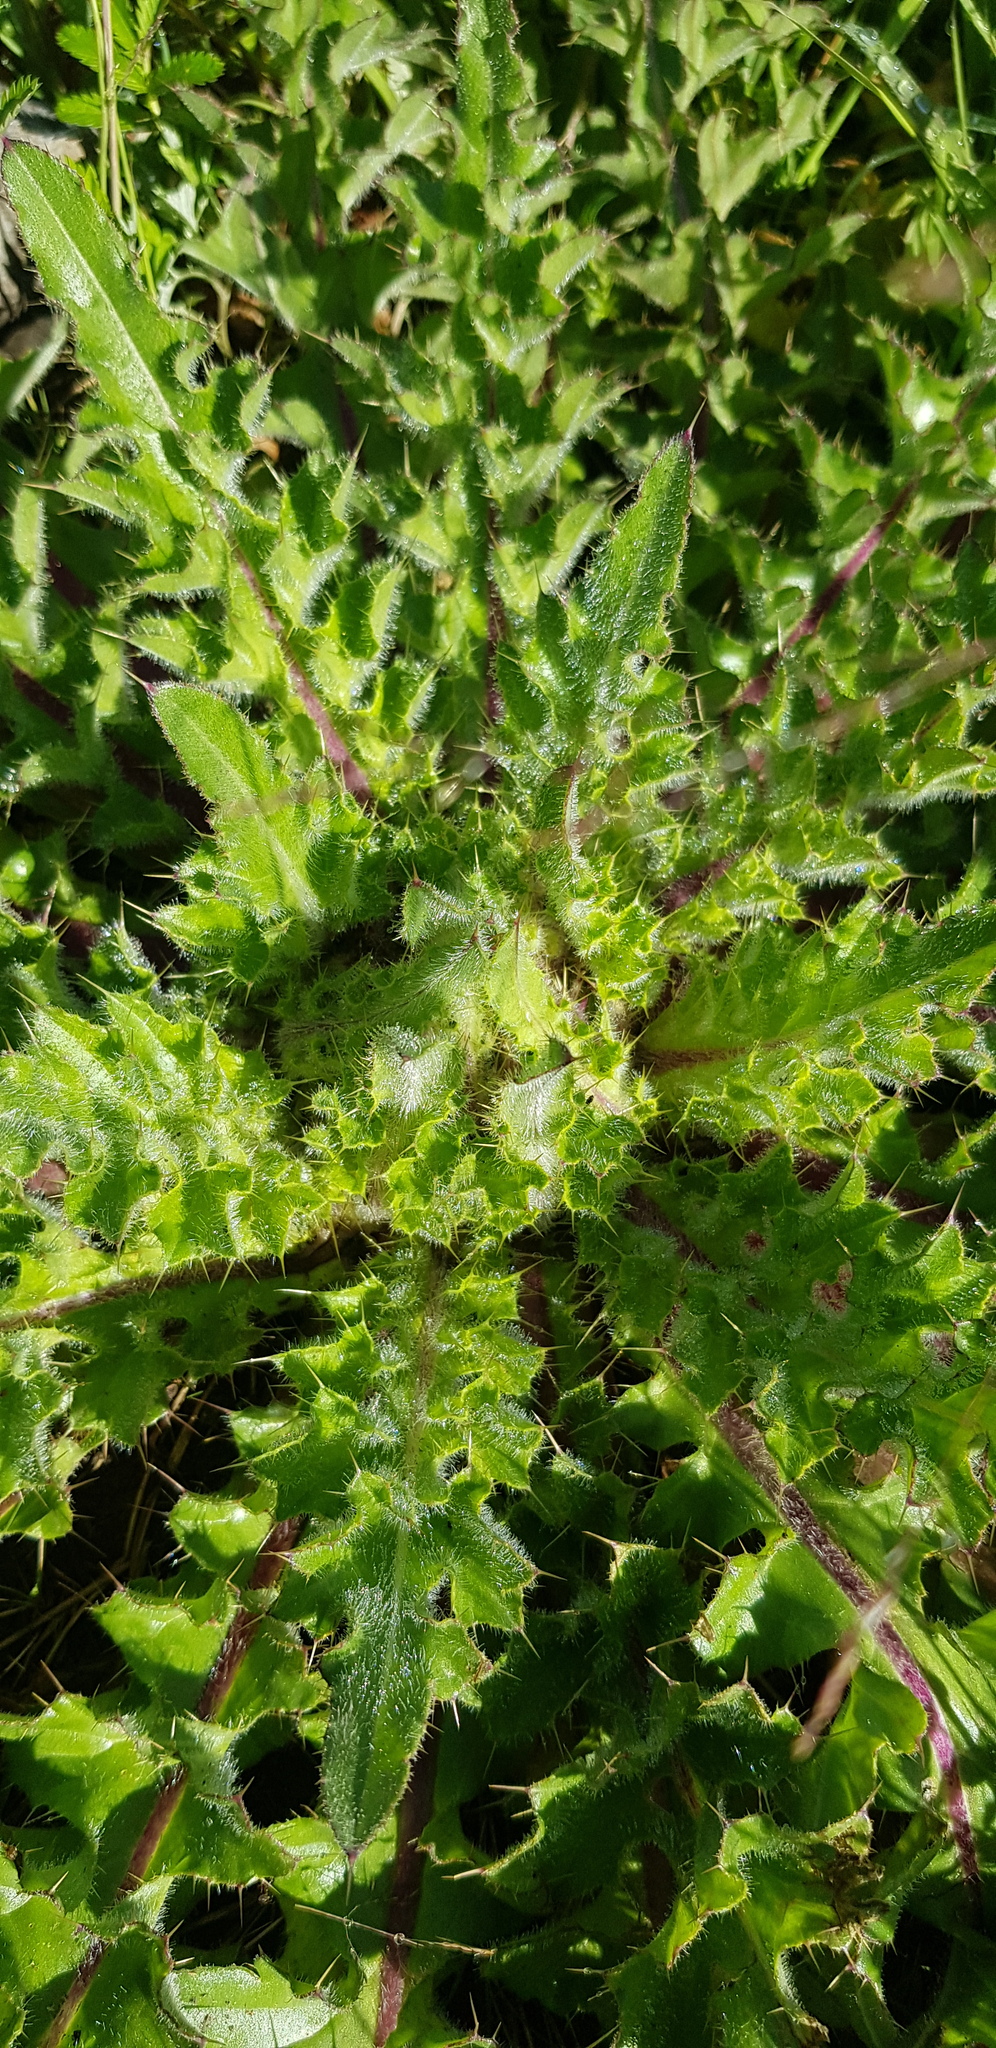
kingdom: Plantae
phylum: Tracheophyta
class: Magnoliopsida
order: Asterales
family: Asteraceae
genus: Cirsium
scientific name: Cirsium esculentum
